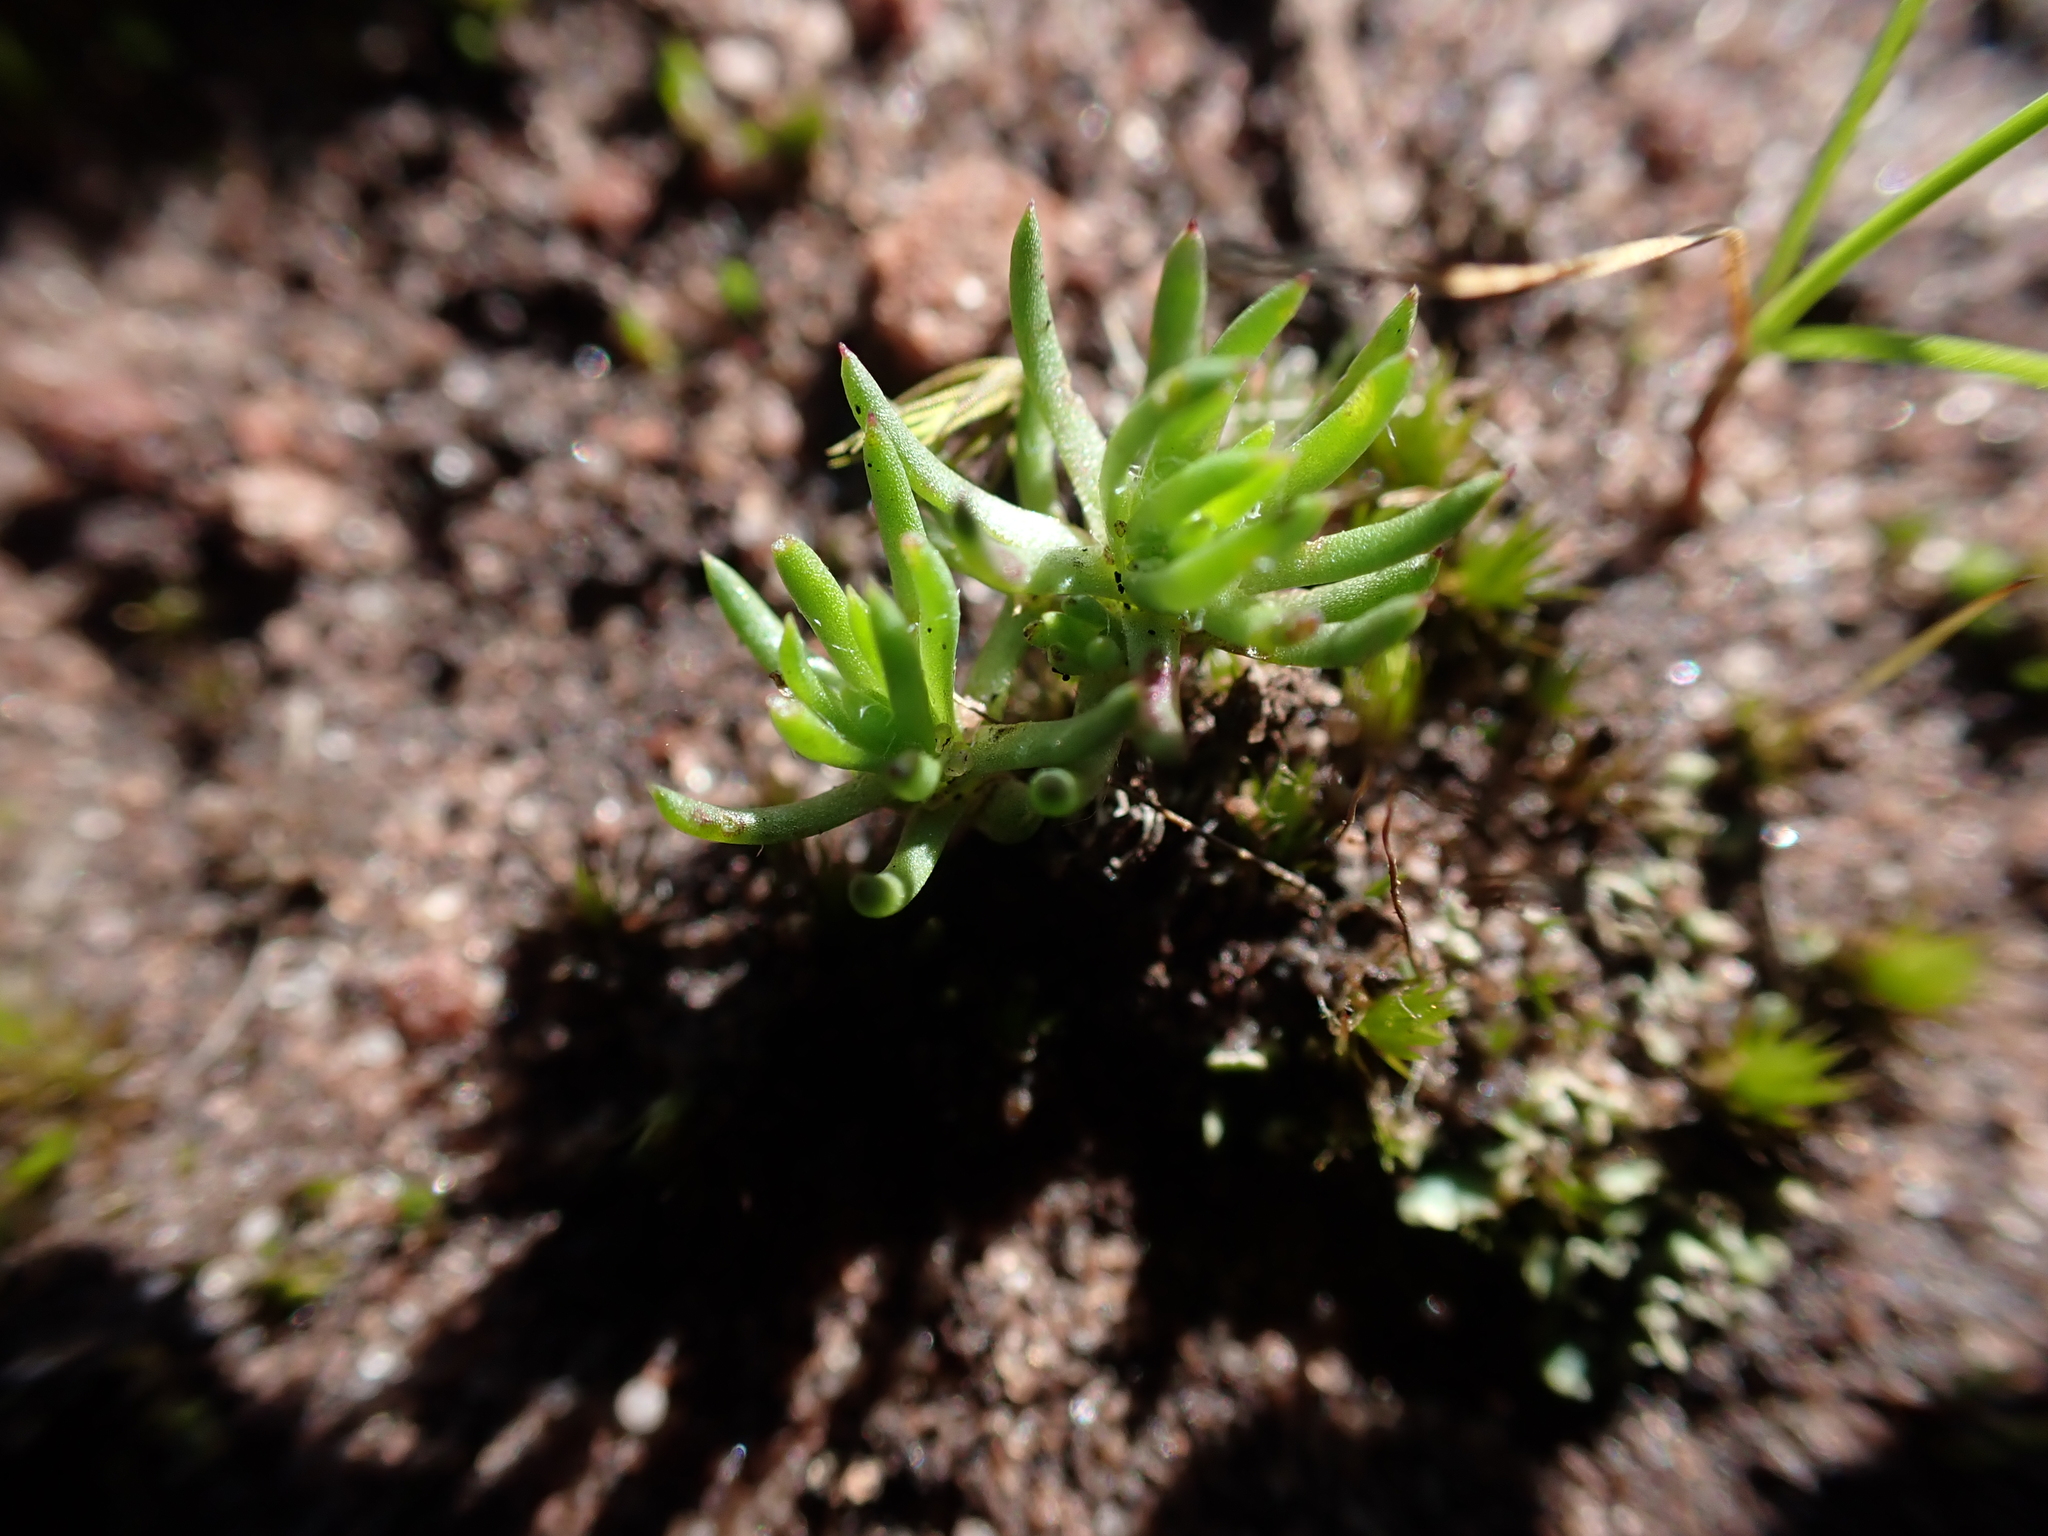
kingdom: Plantae
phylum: Tracheophyta
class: Magnoliopsida
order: Asterales
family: Asteraceae
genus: Hyalosperma
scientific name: Hyalosperma demissum
